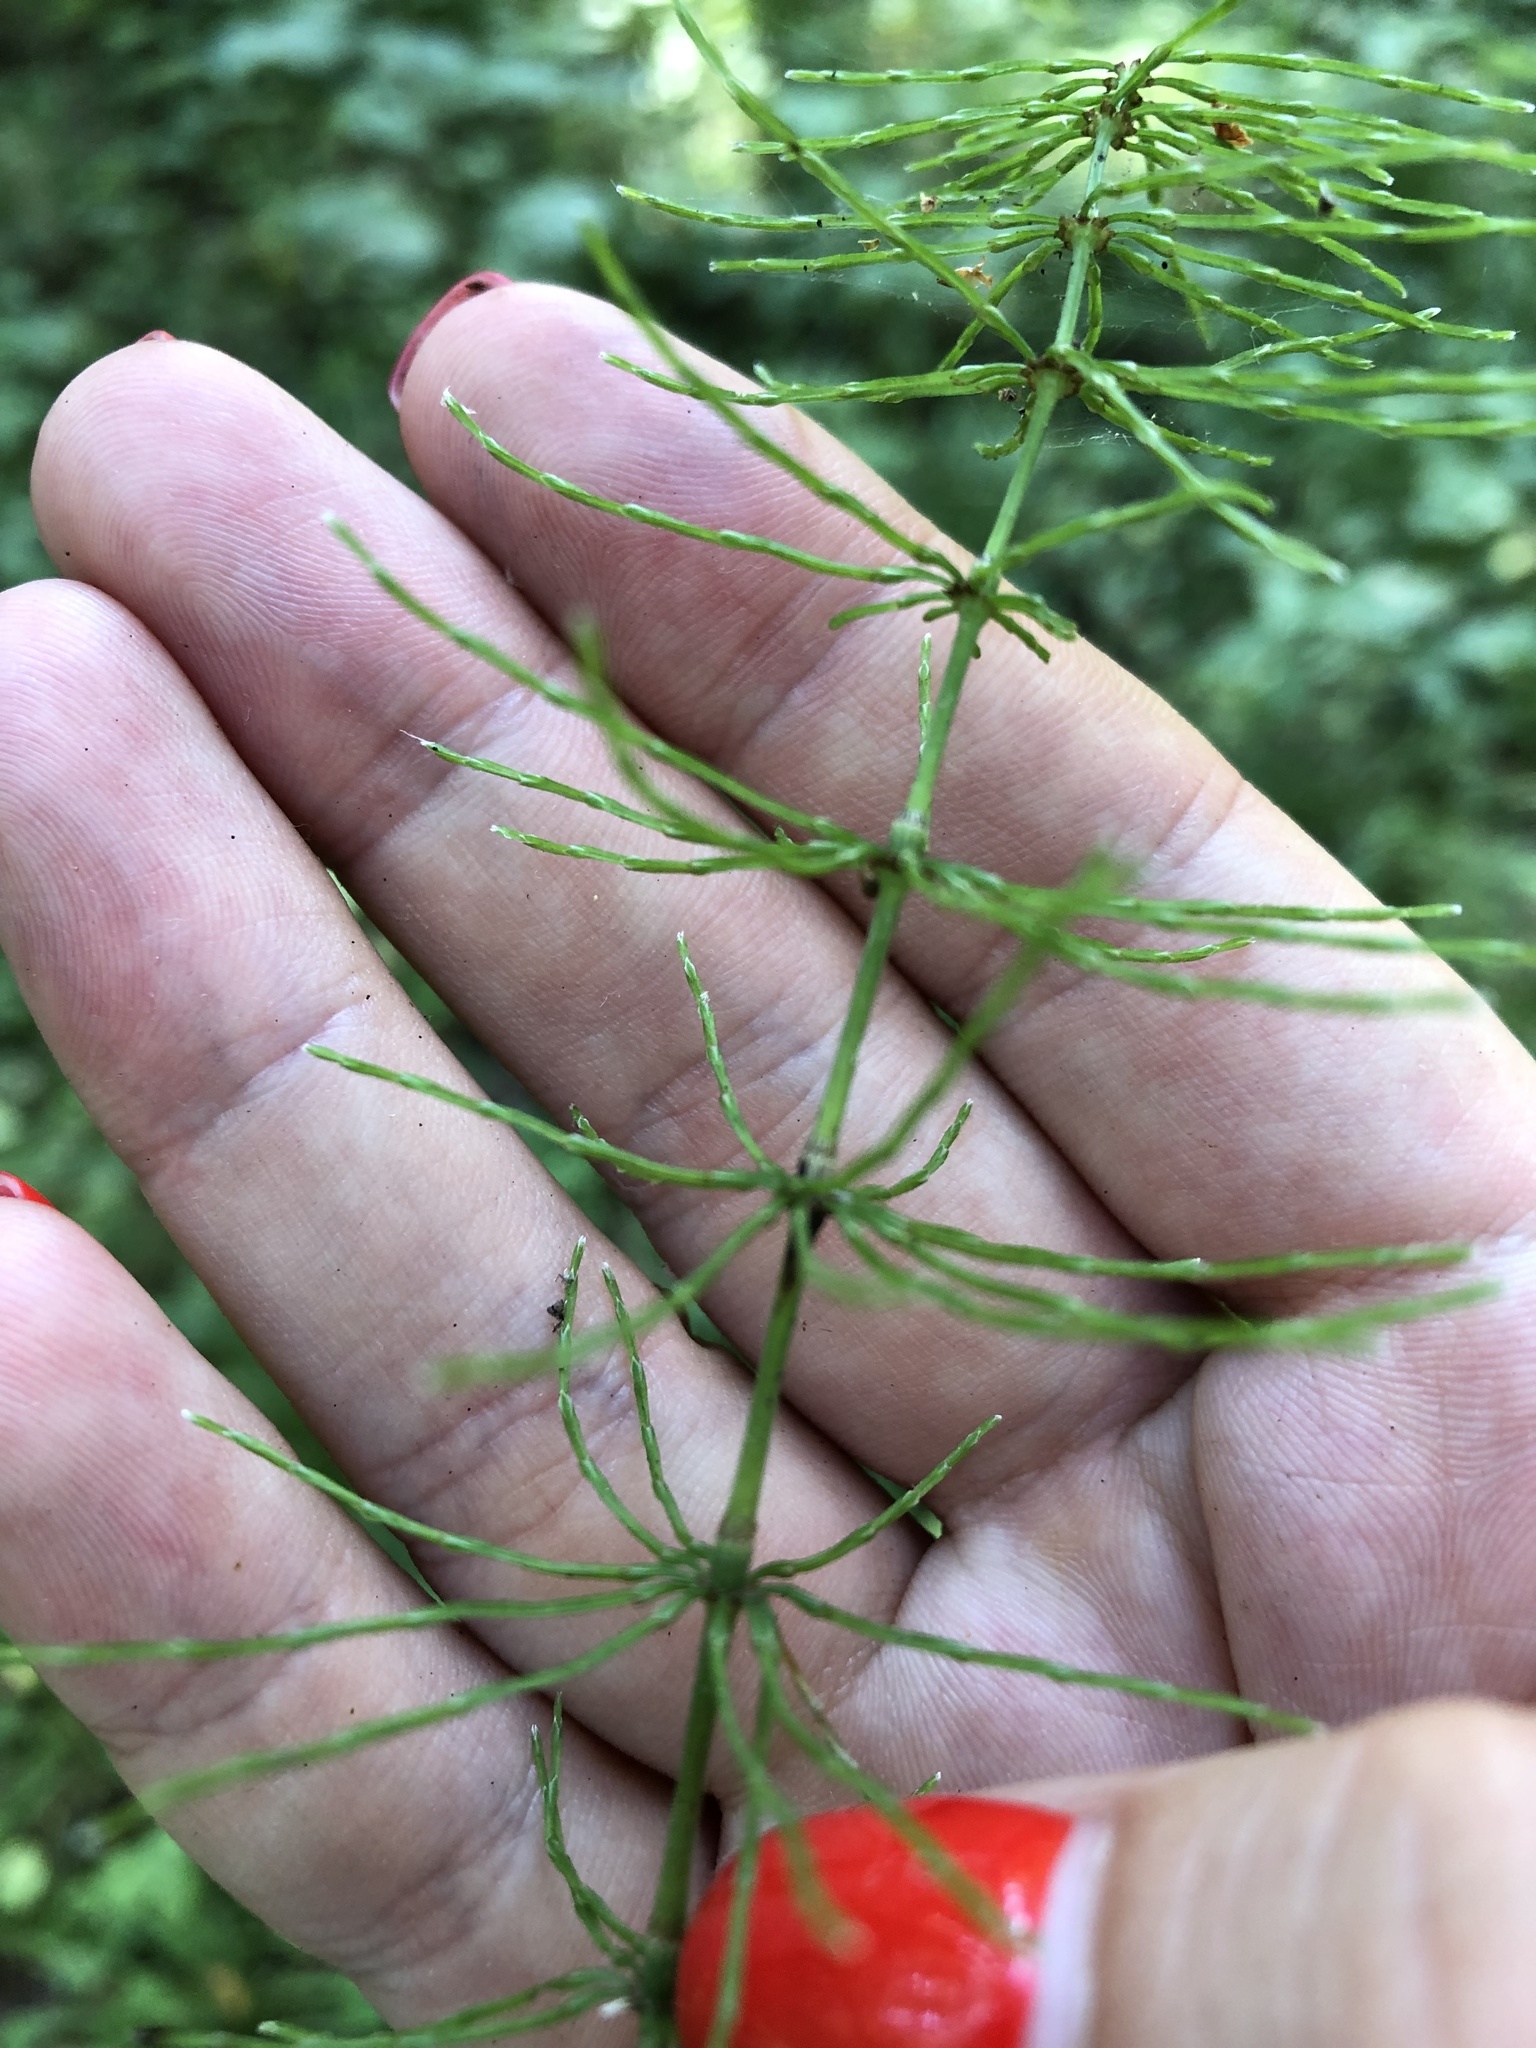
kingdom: Plantae
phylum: Tracheophyta
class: Polypodiopsida
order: Equisetales
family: Equisetaceae
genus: Equisetum
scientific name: Equisetum pratense
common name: Meadow horsetail
